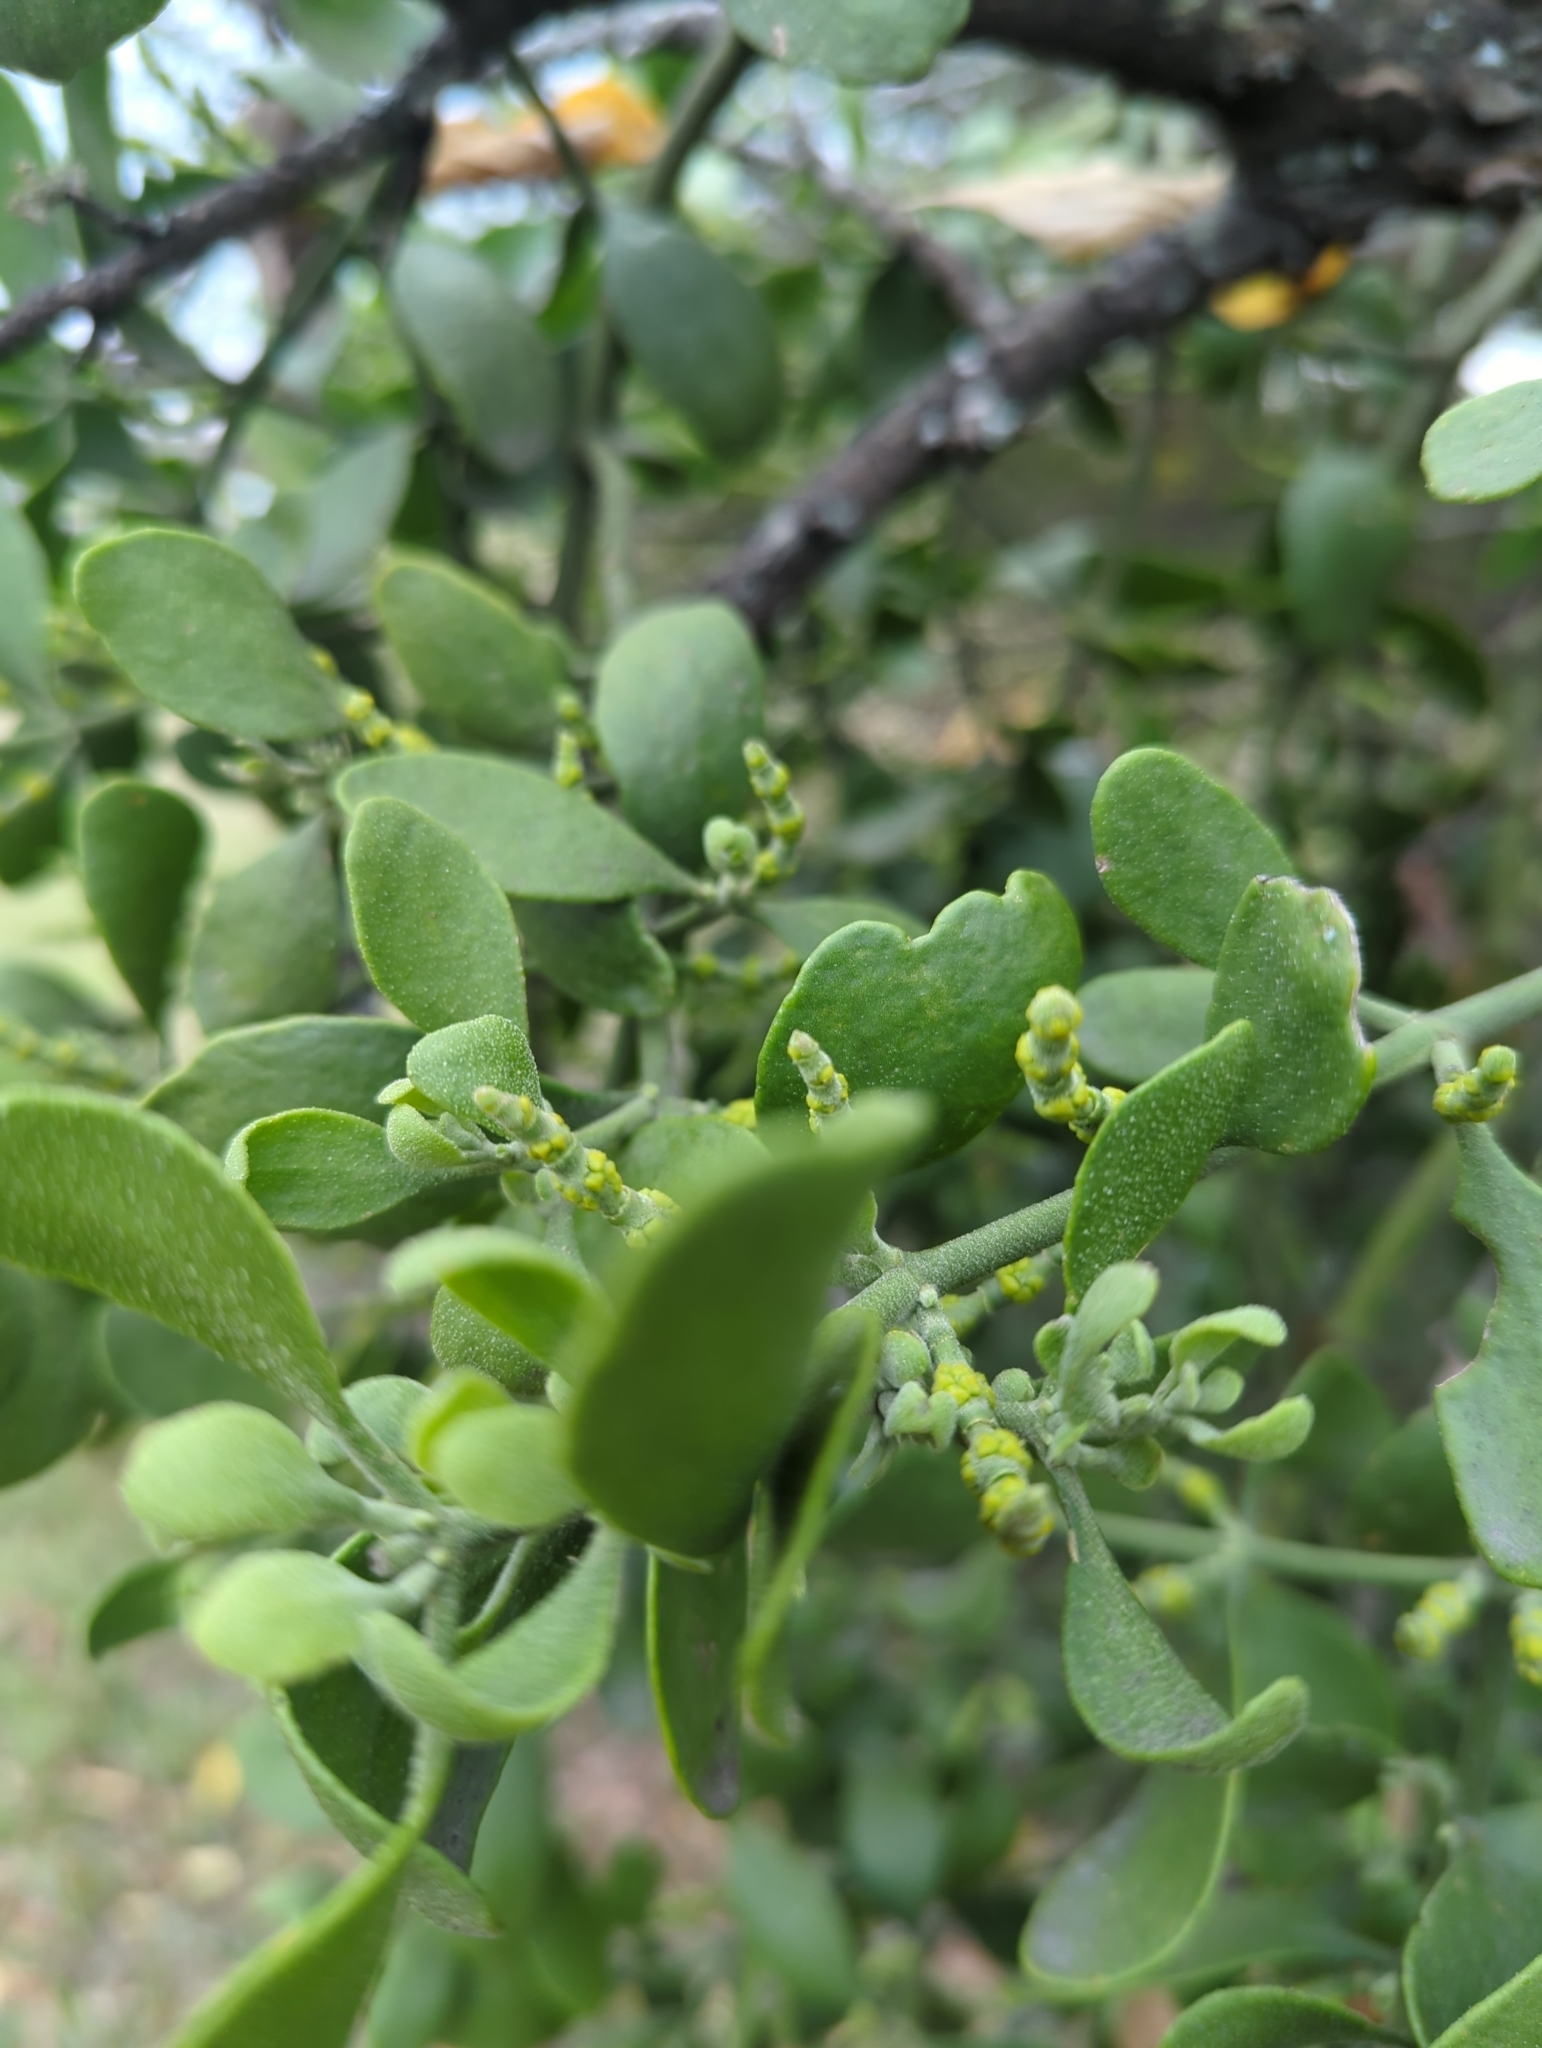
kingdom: Plantae
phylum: Tracheophyta
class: Magnoliopsida
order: Santalales
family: Viscaceae
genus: Phoradendron
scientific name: Phoradendron leucarpum
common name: Pacific mistletoe
